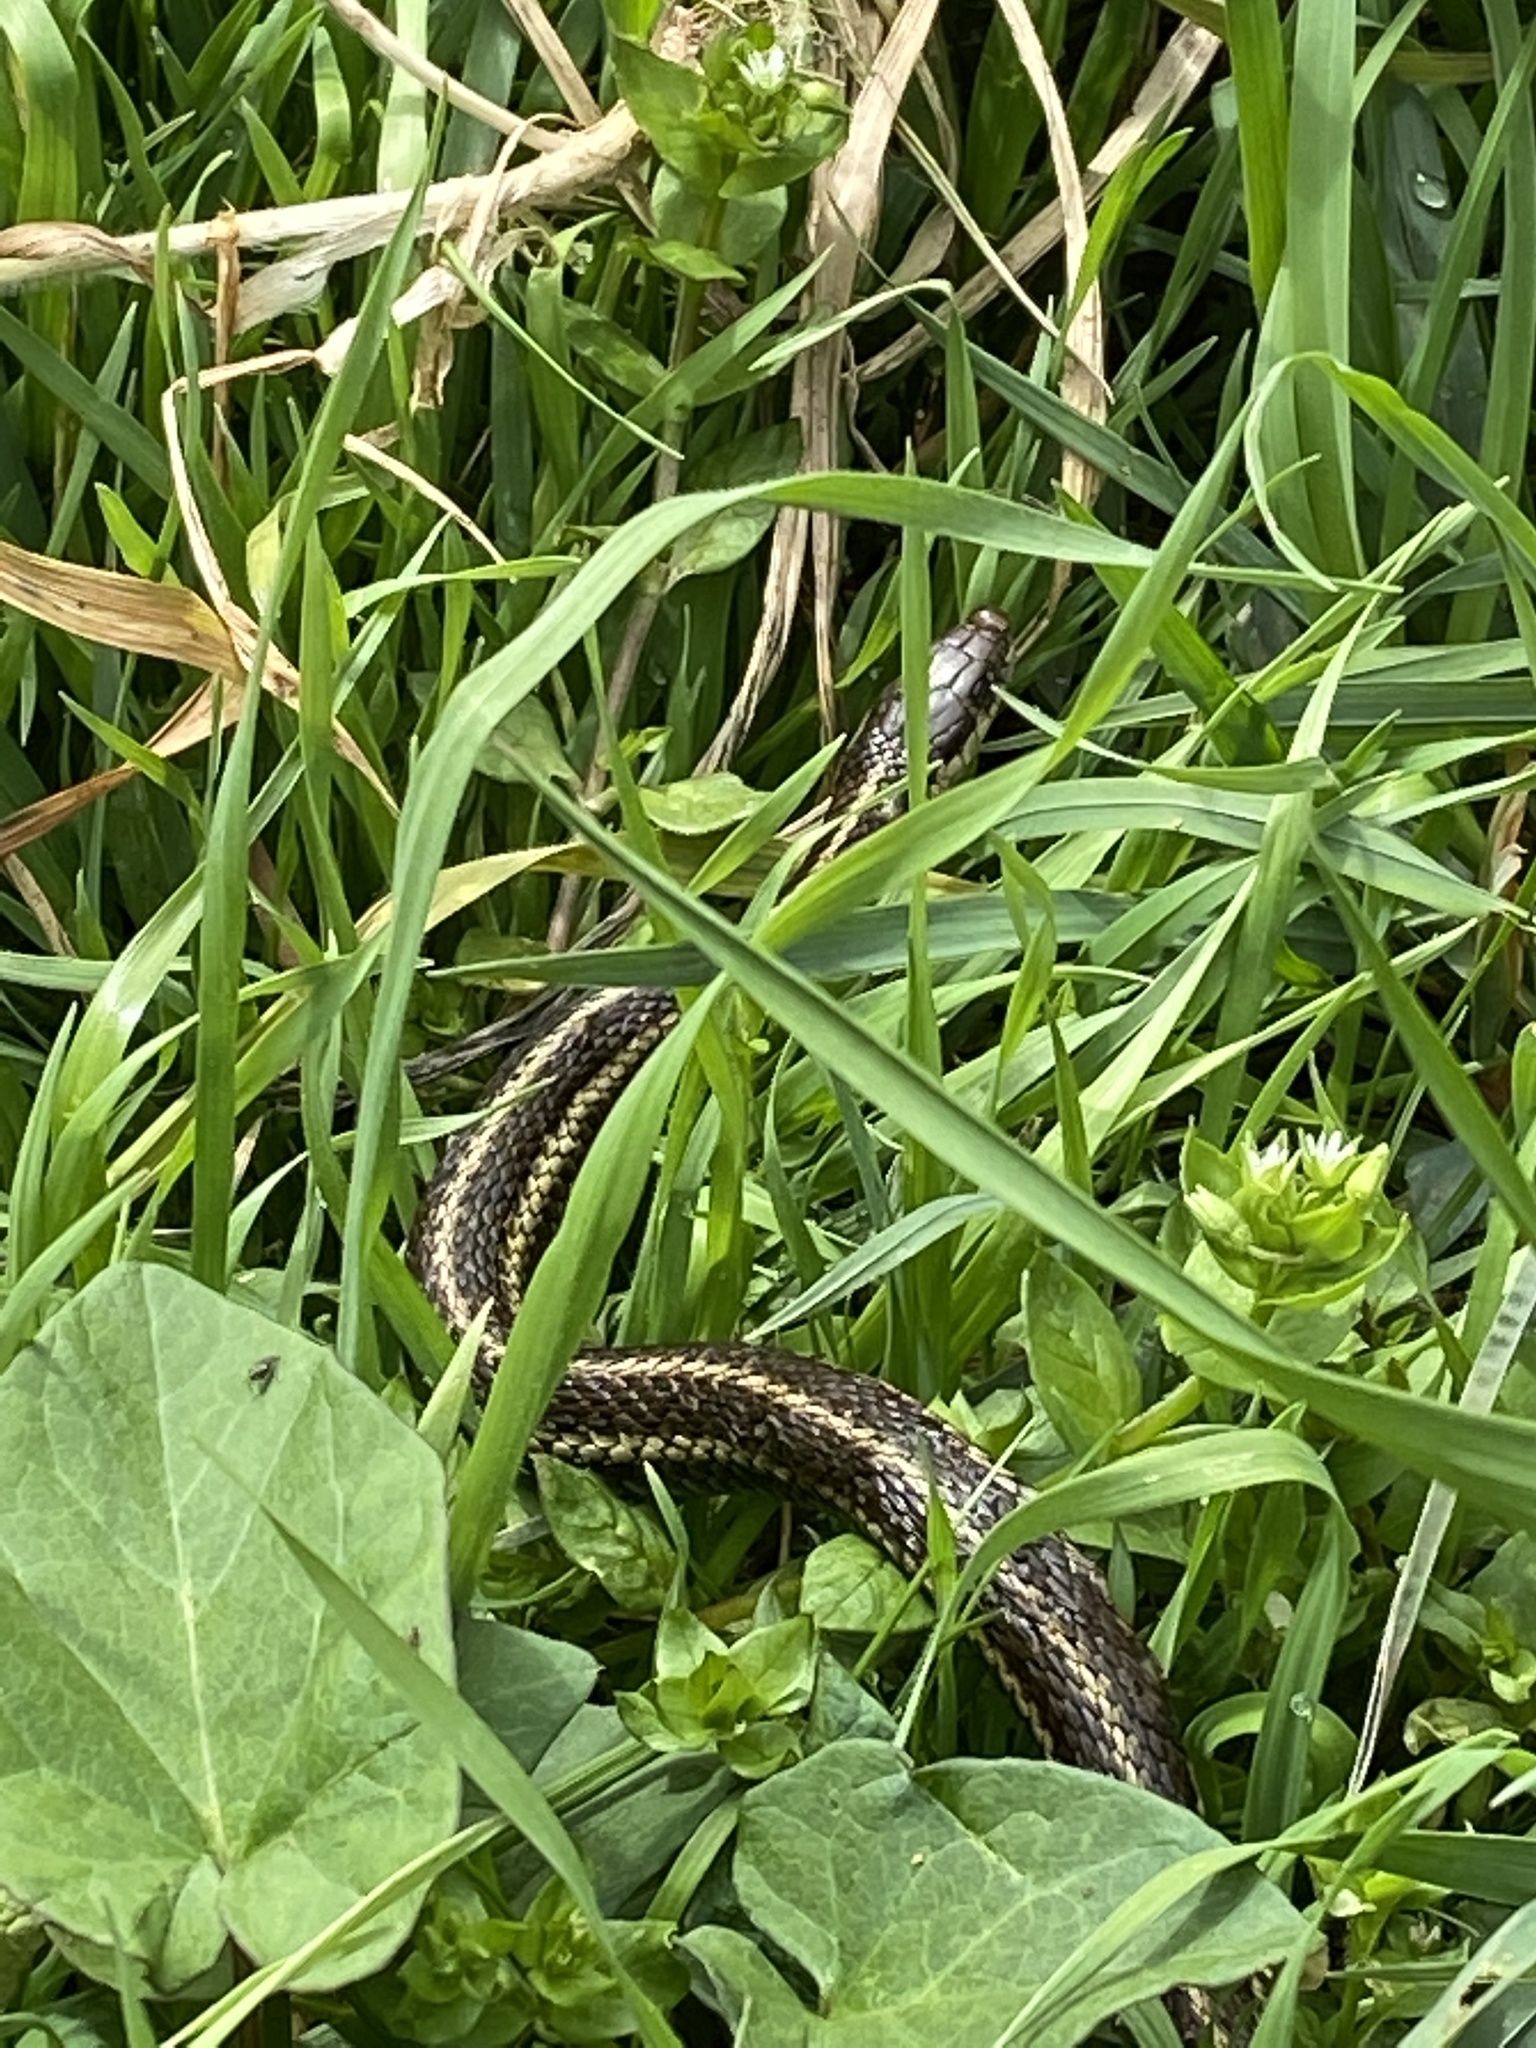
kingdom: Animalia
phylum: Chordata
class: Squamata
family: Colubridae
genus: Thamnophis
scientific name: Thamnophis ordinoides
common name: Northwestern garter snake
